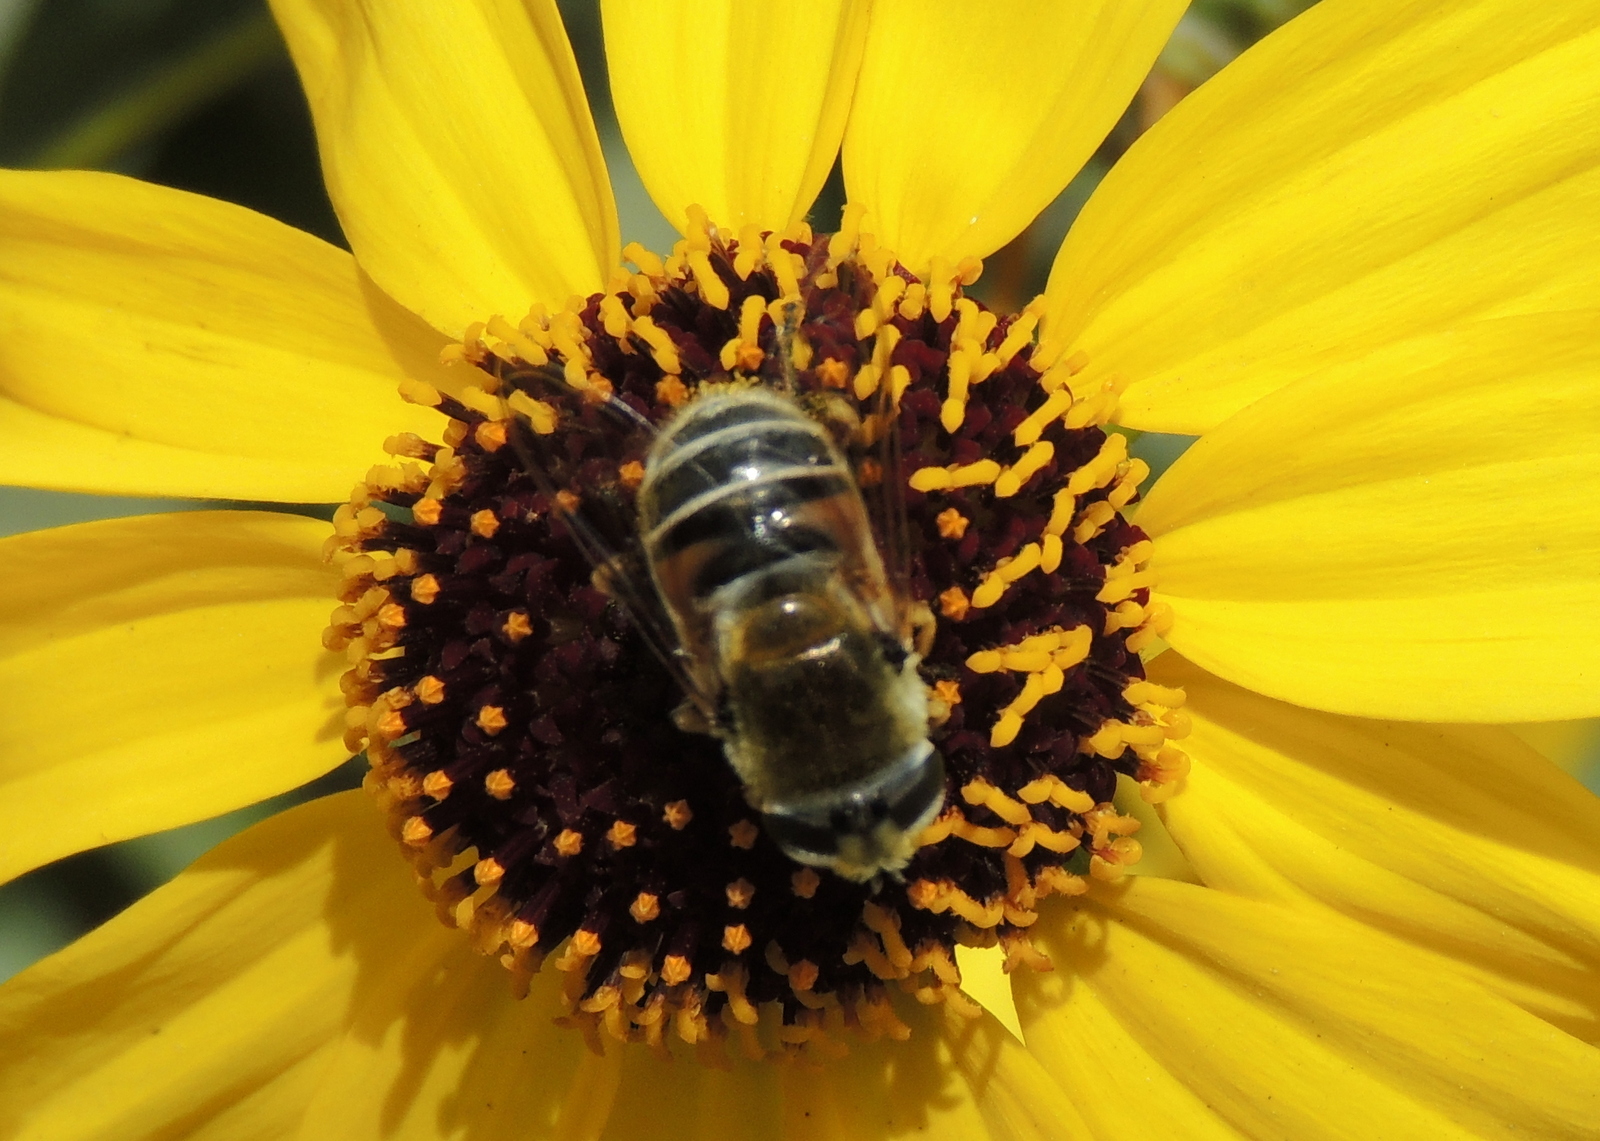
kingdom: Animalia
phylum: Arthropoda
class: Insecta
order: Diptera
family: Syrphidae
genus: Eristalis
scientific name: Eristalis stipator
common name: Yellow-shouldered drone fly
